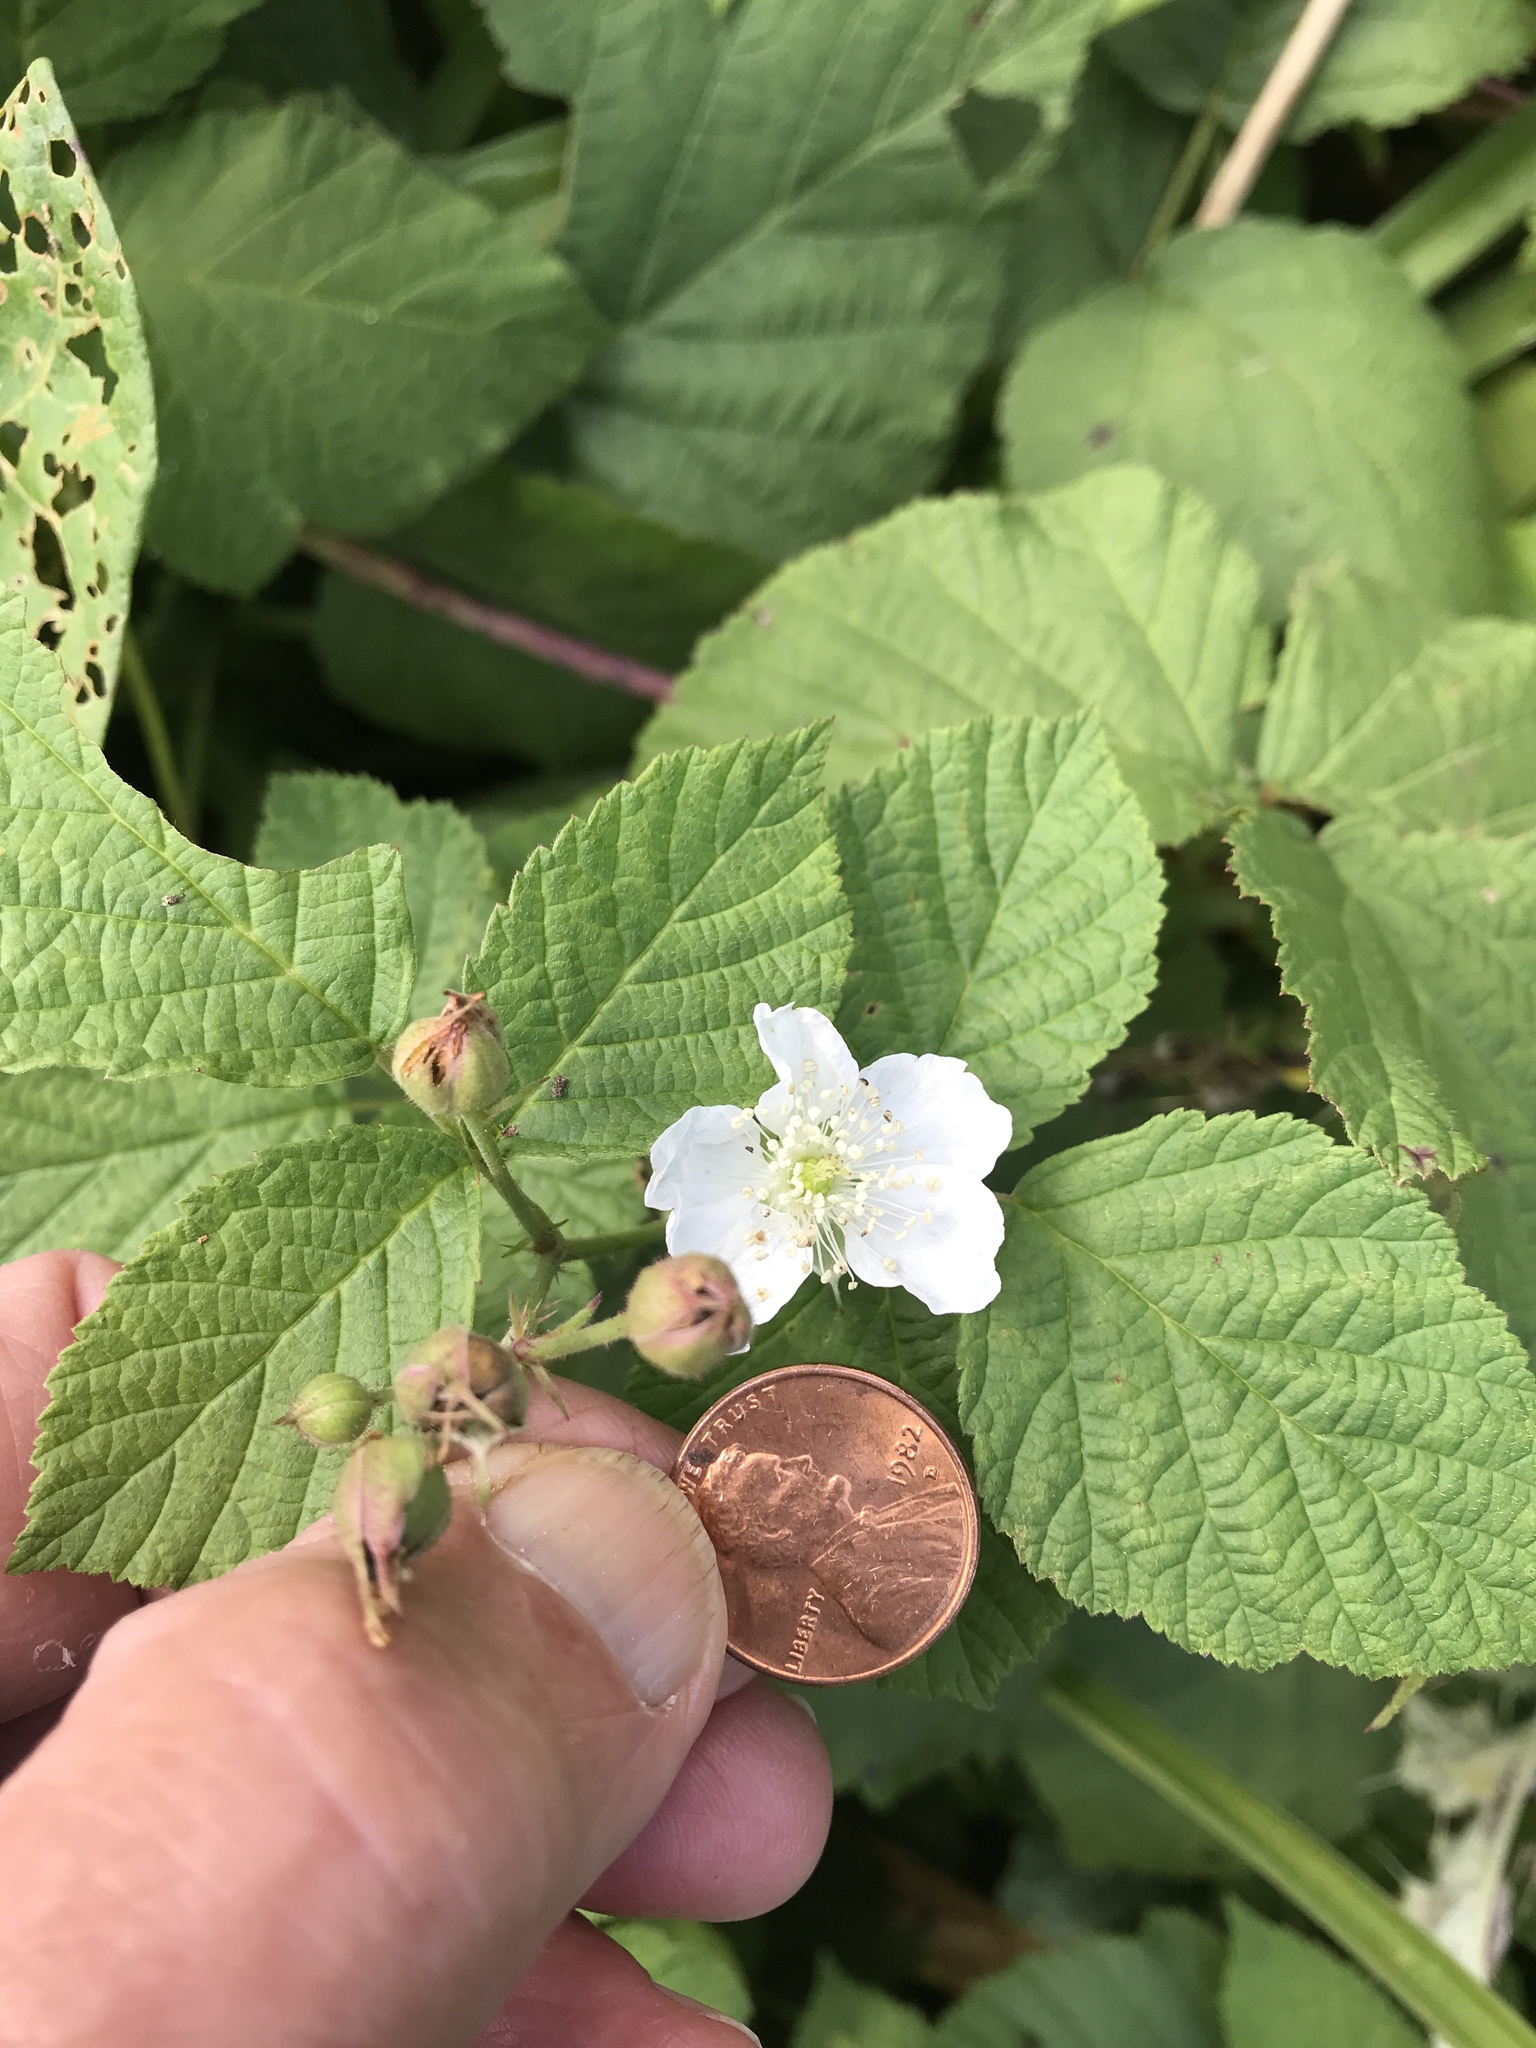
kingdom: Plantae
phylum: Tracheophyta
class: Magnoliopsida
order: Rosales
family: Rosaceae
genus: Rubus
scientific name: Rubus caesius
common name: Dewberry
